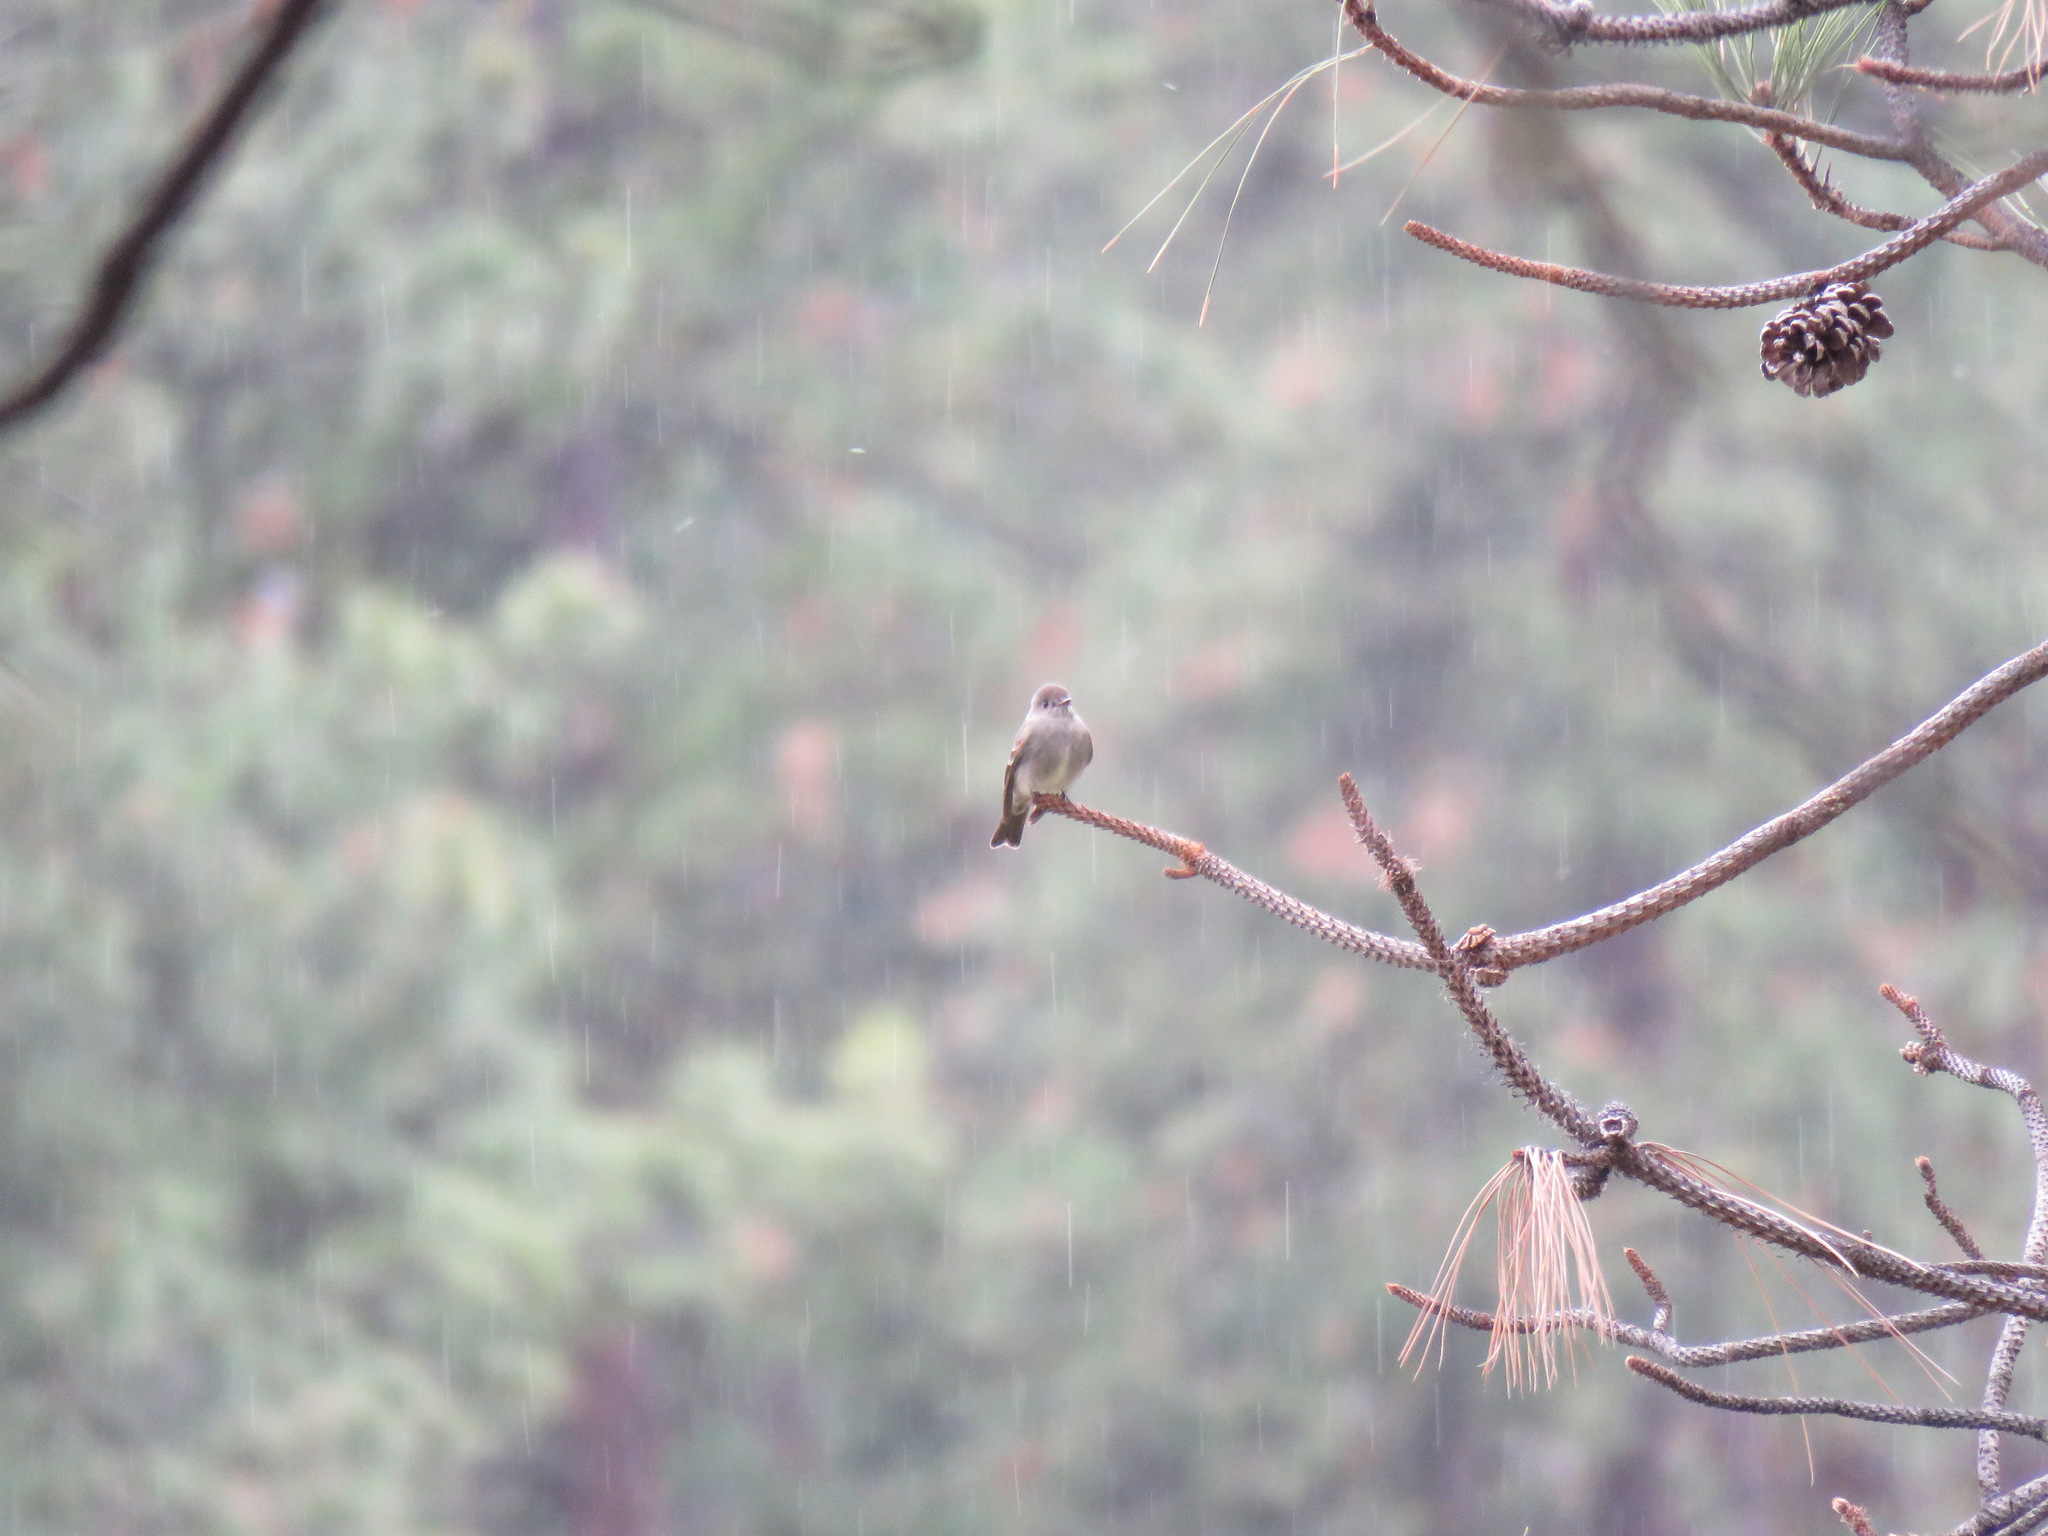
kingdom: Animalia
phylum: Chordata
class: Aves
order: Passeriformes
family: Tyrannidae
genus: Contopus
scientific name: Contopus sordidulus
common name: Western wood-pewee
